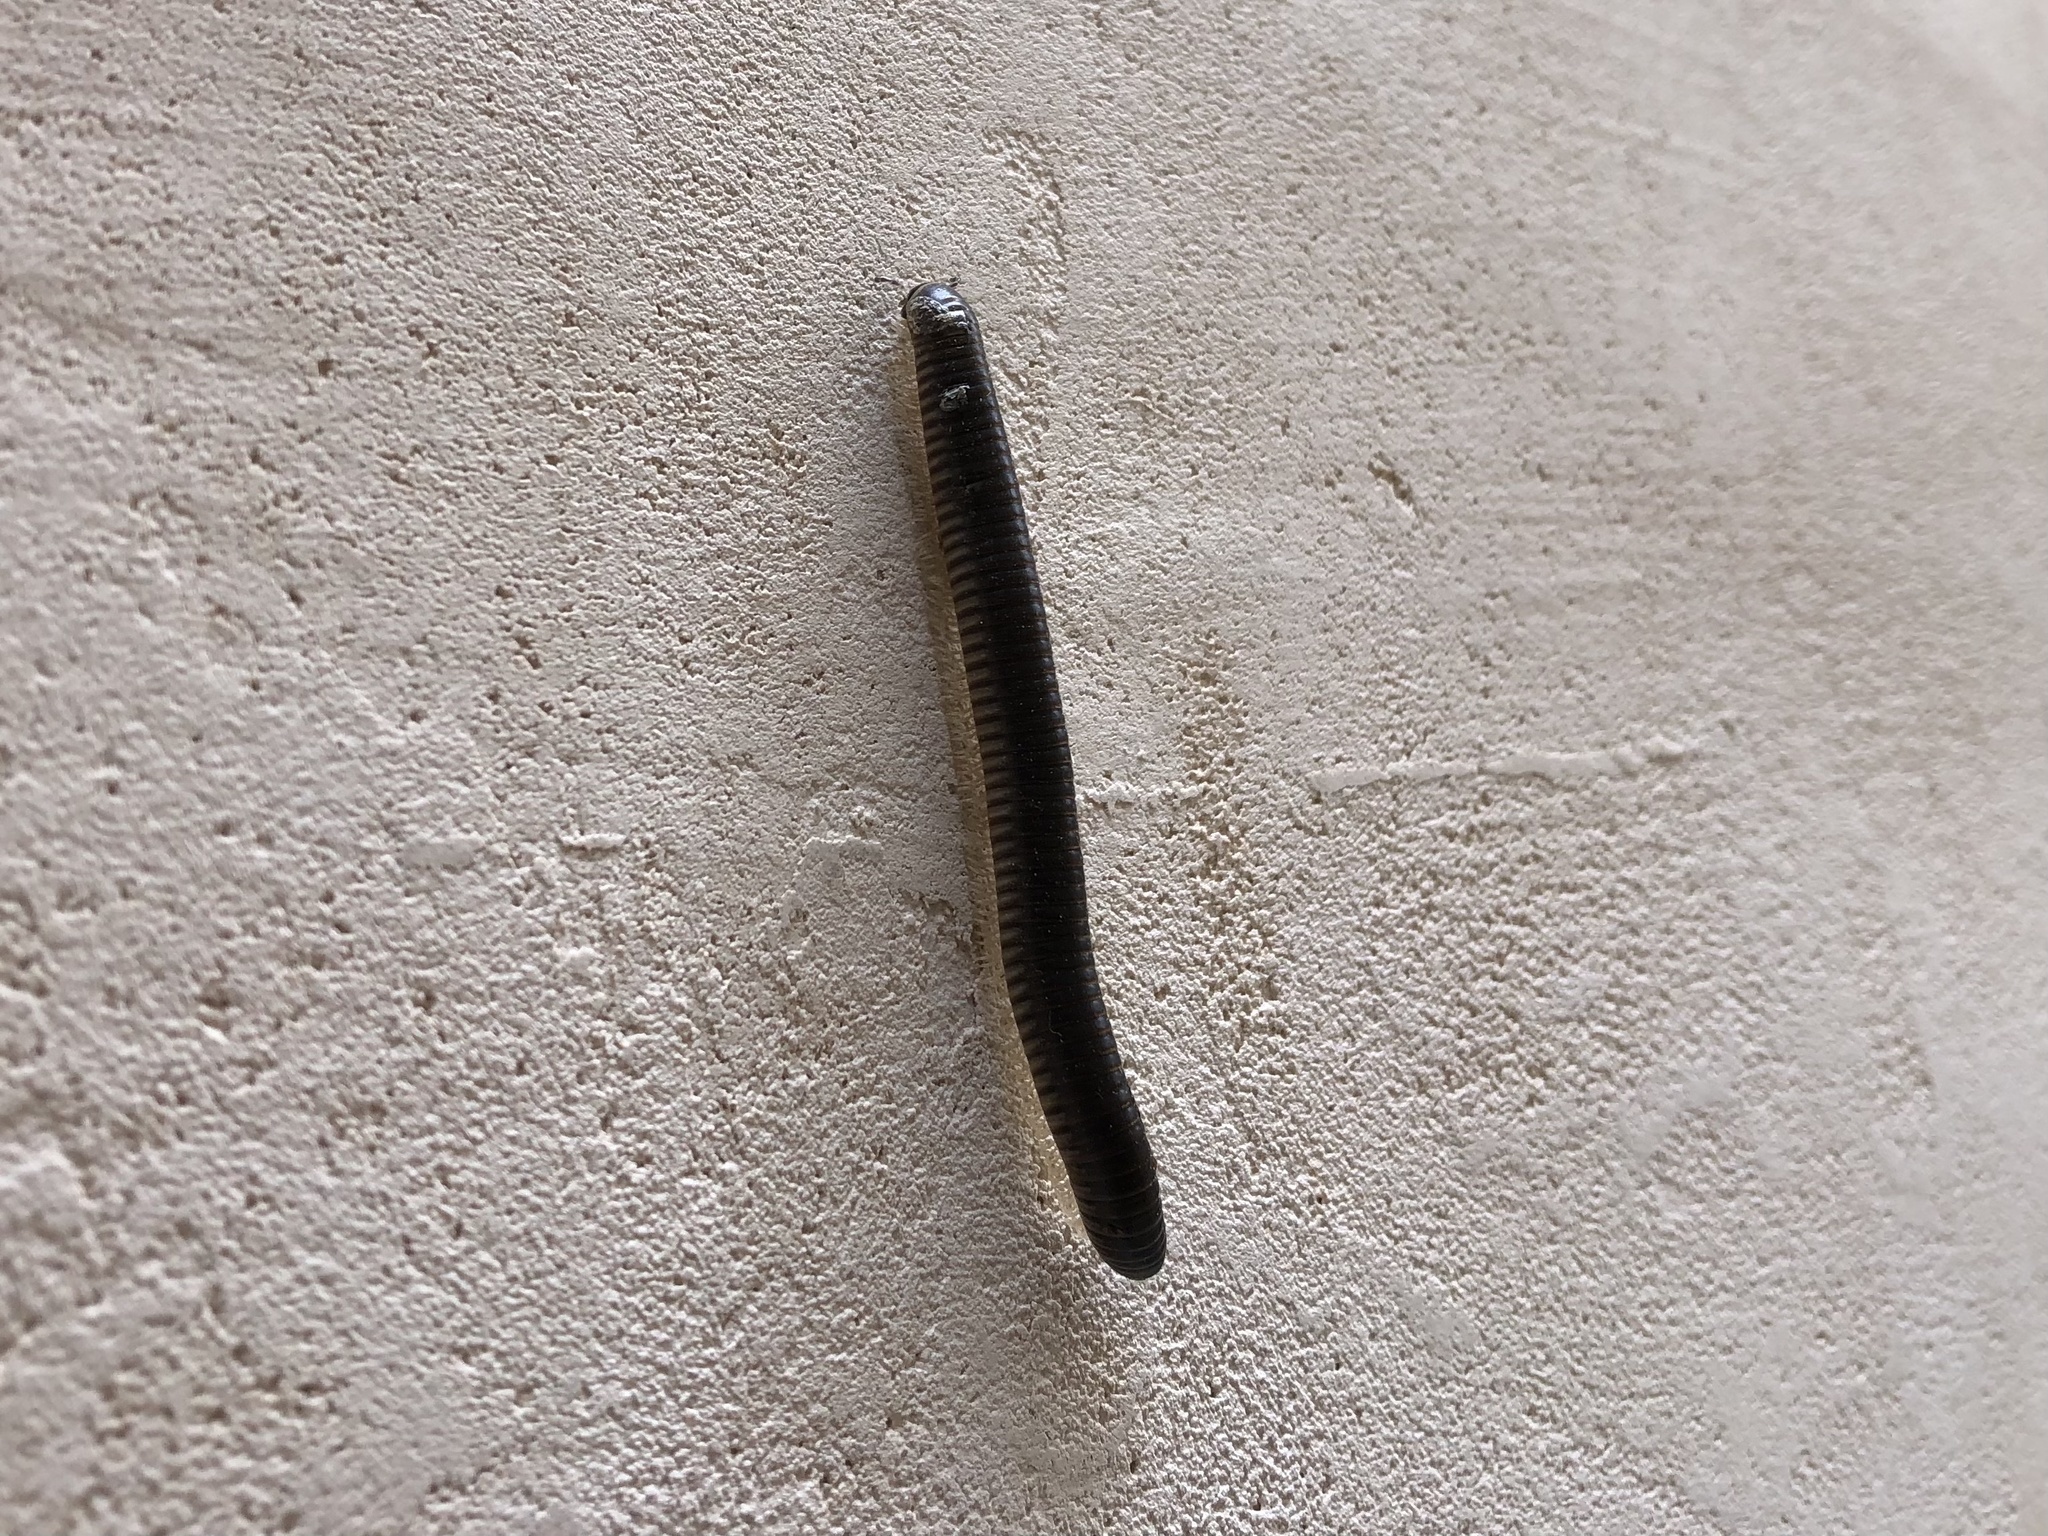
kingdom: Animalia
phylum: Arthropoda
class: Diplopoda
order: Julida
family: Julidae
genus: Pachyiulus
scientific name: Pachyiulus flavipes
